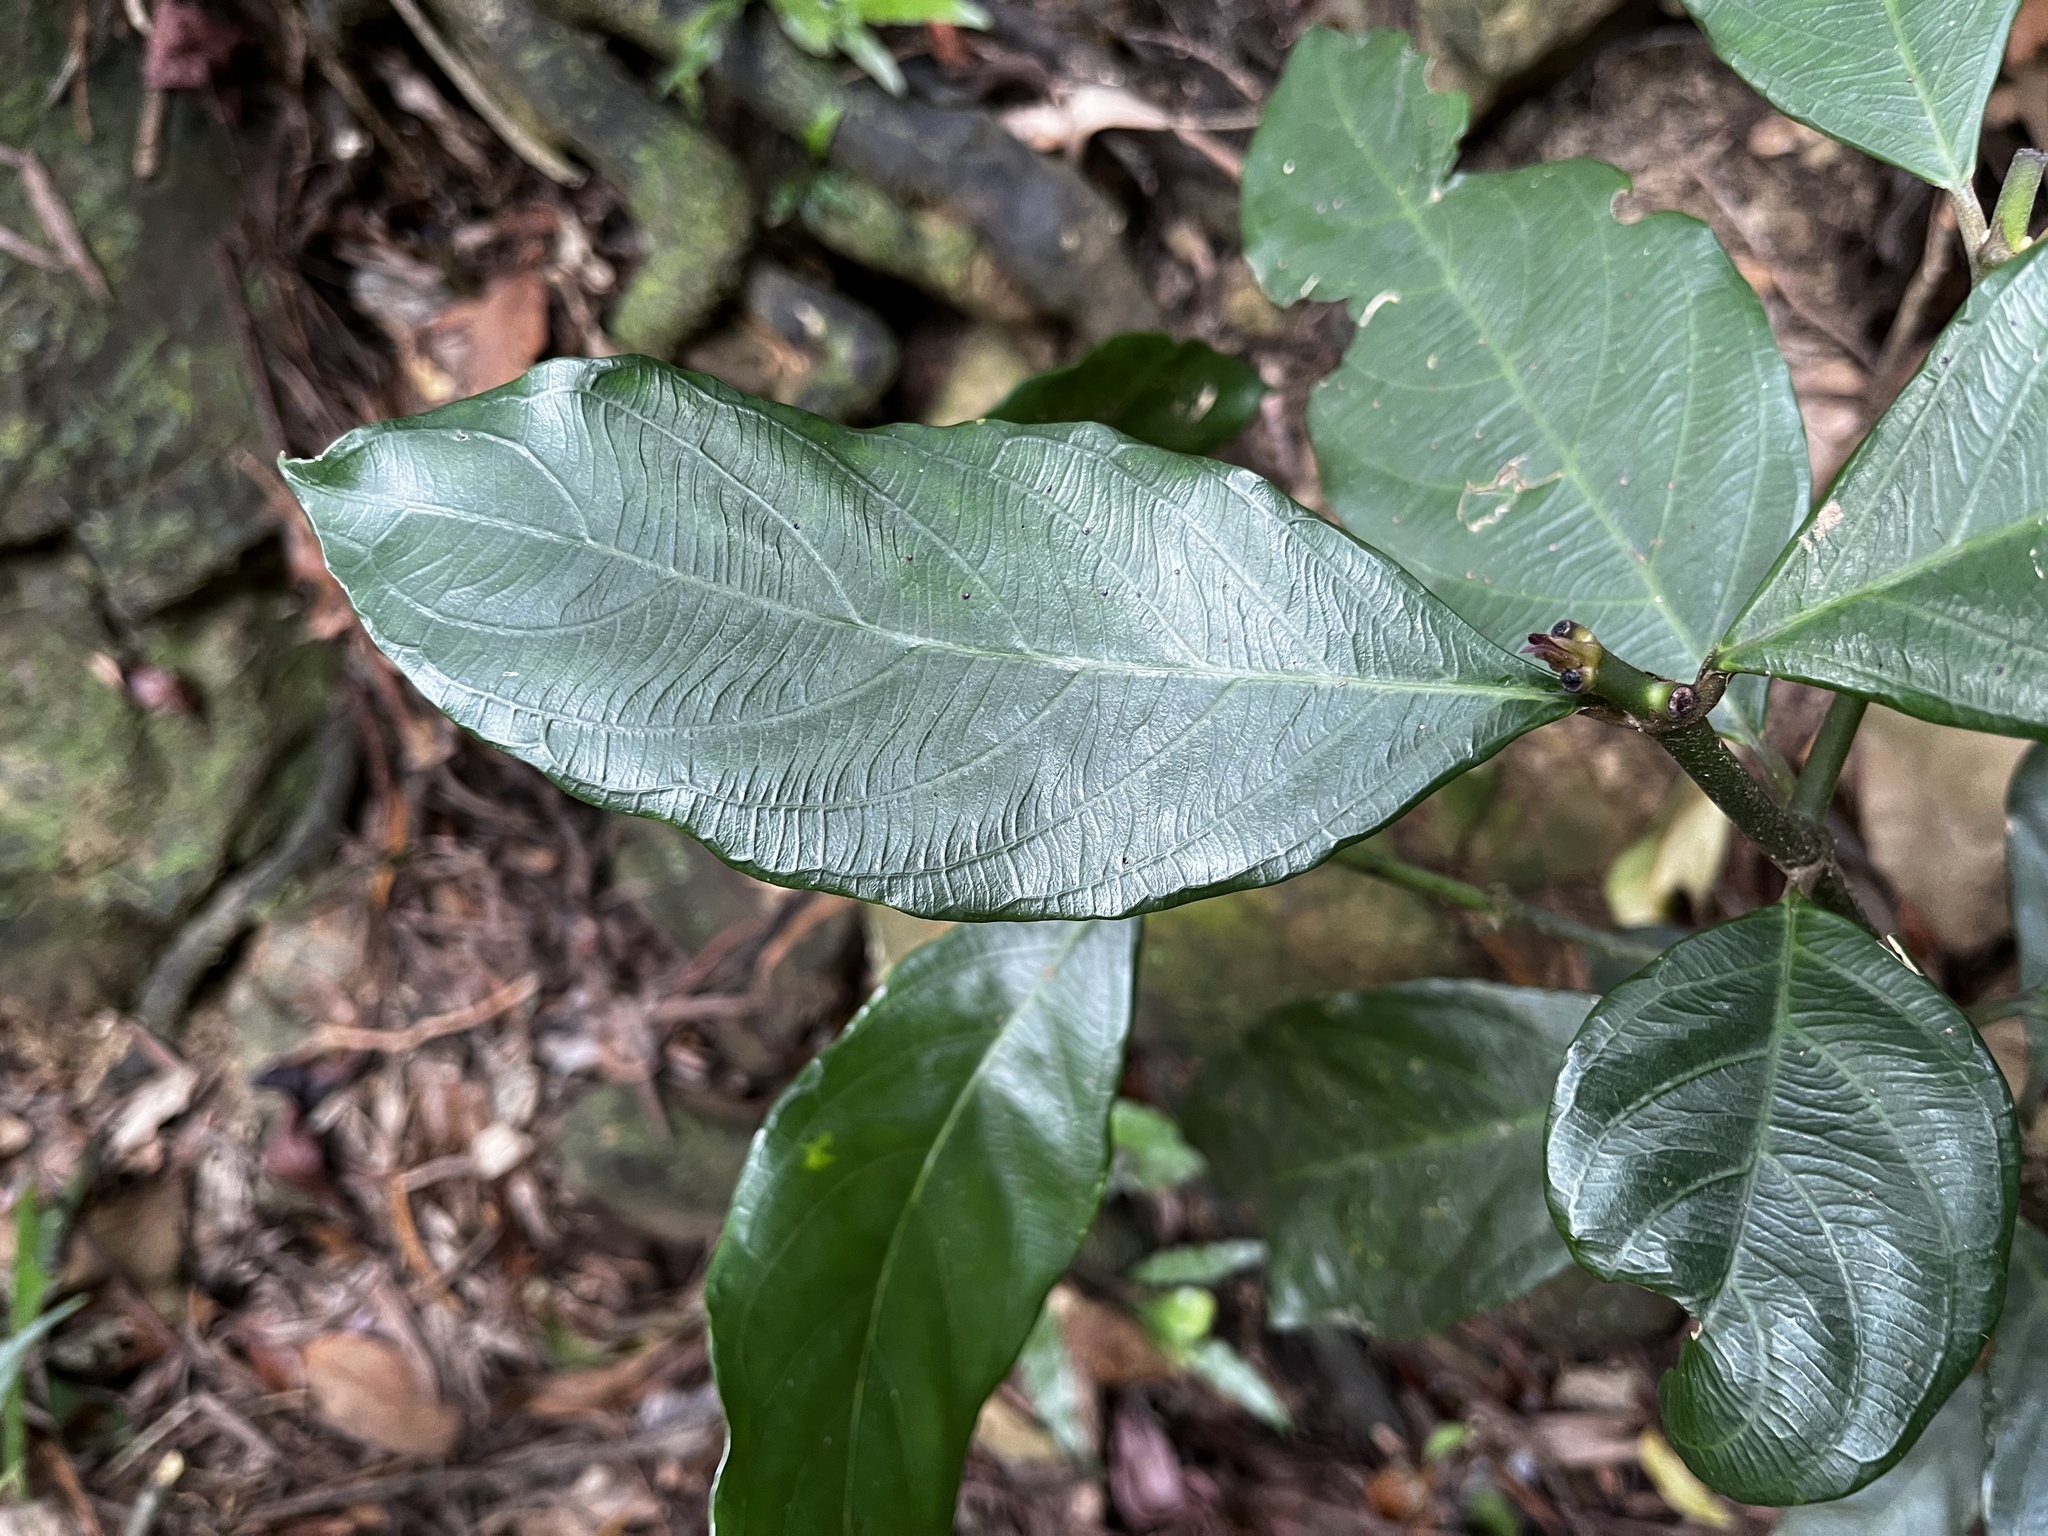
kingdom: Plantae
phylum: Tracheophyta
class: Magnoliopsida
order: Gentianales
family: Rubiaceae
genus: Lasianthus
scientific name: Lasianthus verticillatus
